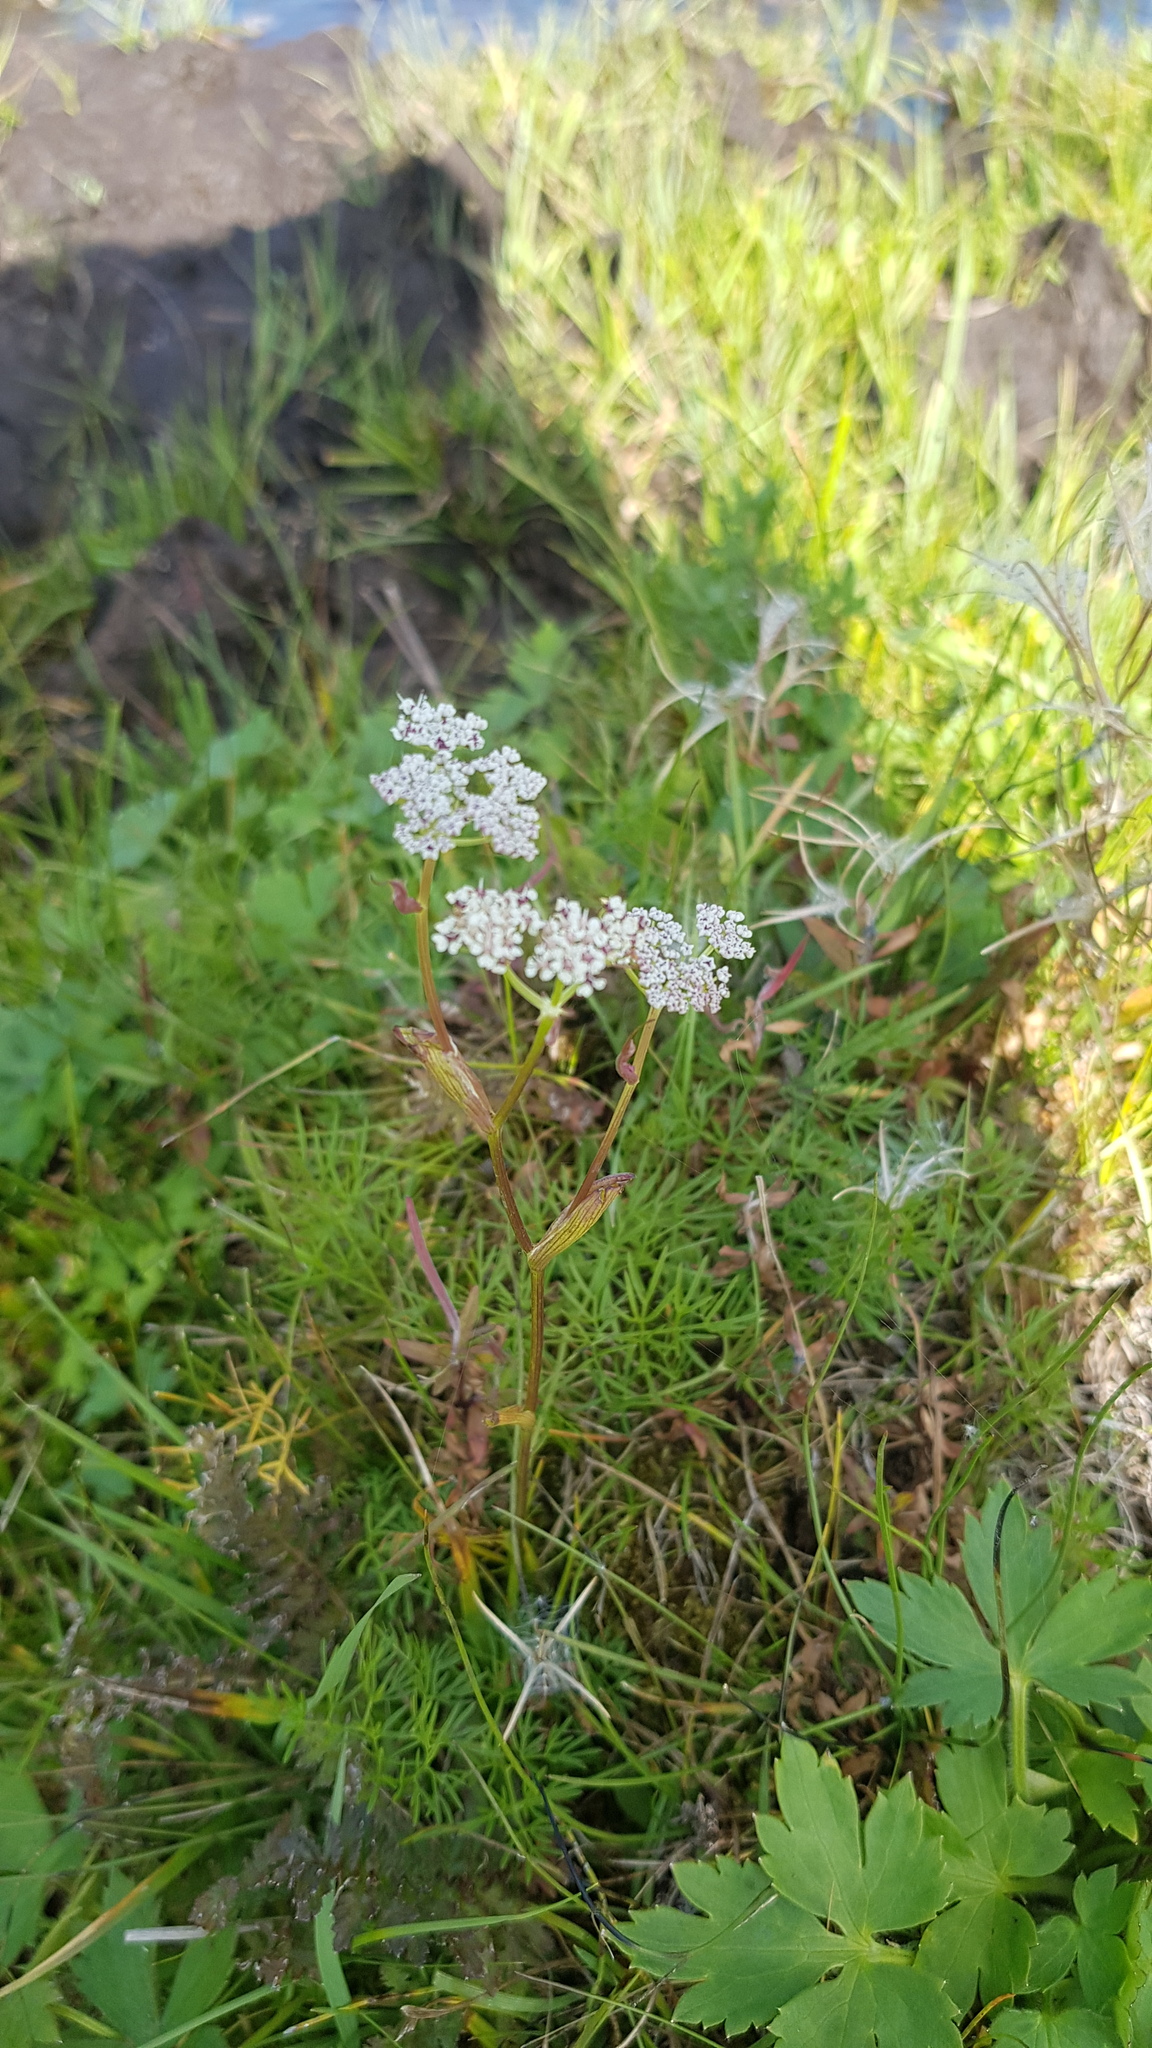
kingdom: Plantae
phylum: Tracheophyta
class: Magnoliopsida
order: Apiales
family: Apiaceae
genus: Ostericum
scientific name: Ostericum tenuifolium
